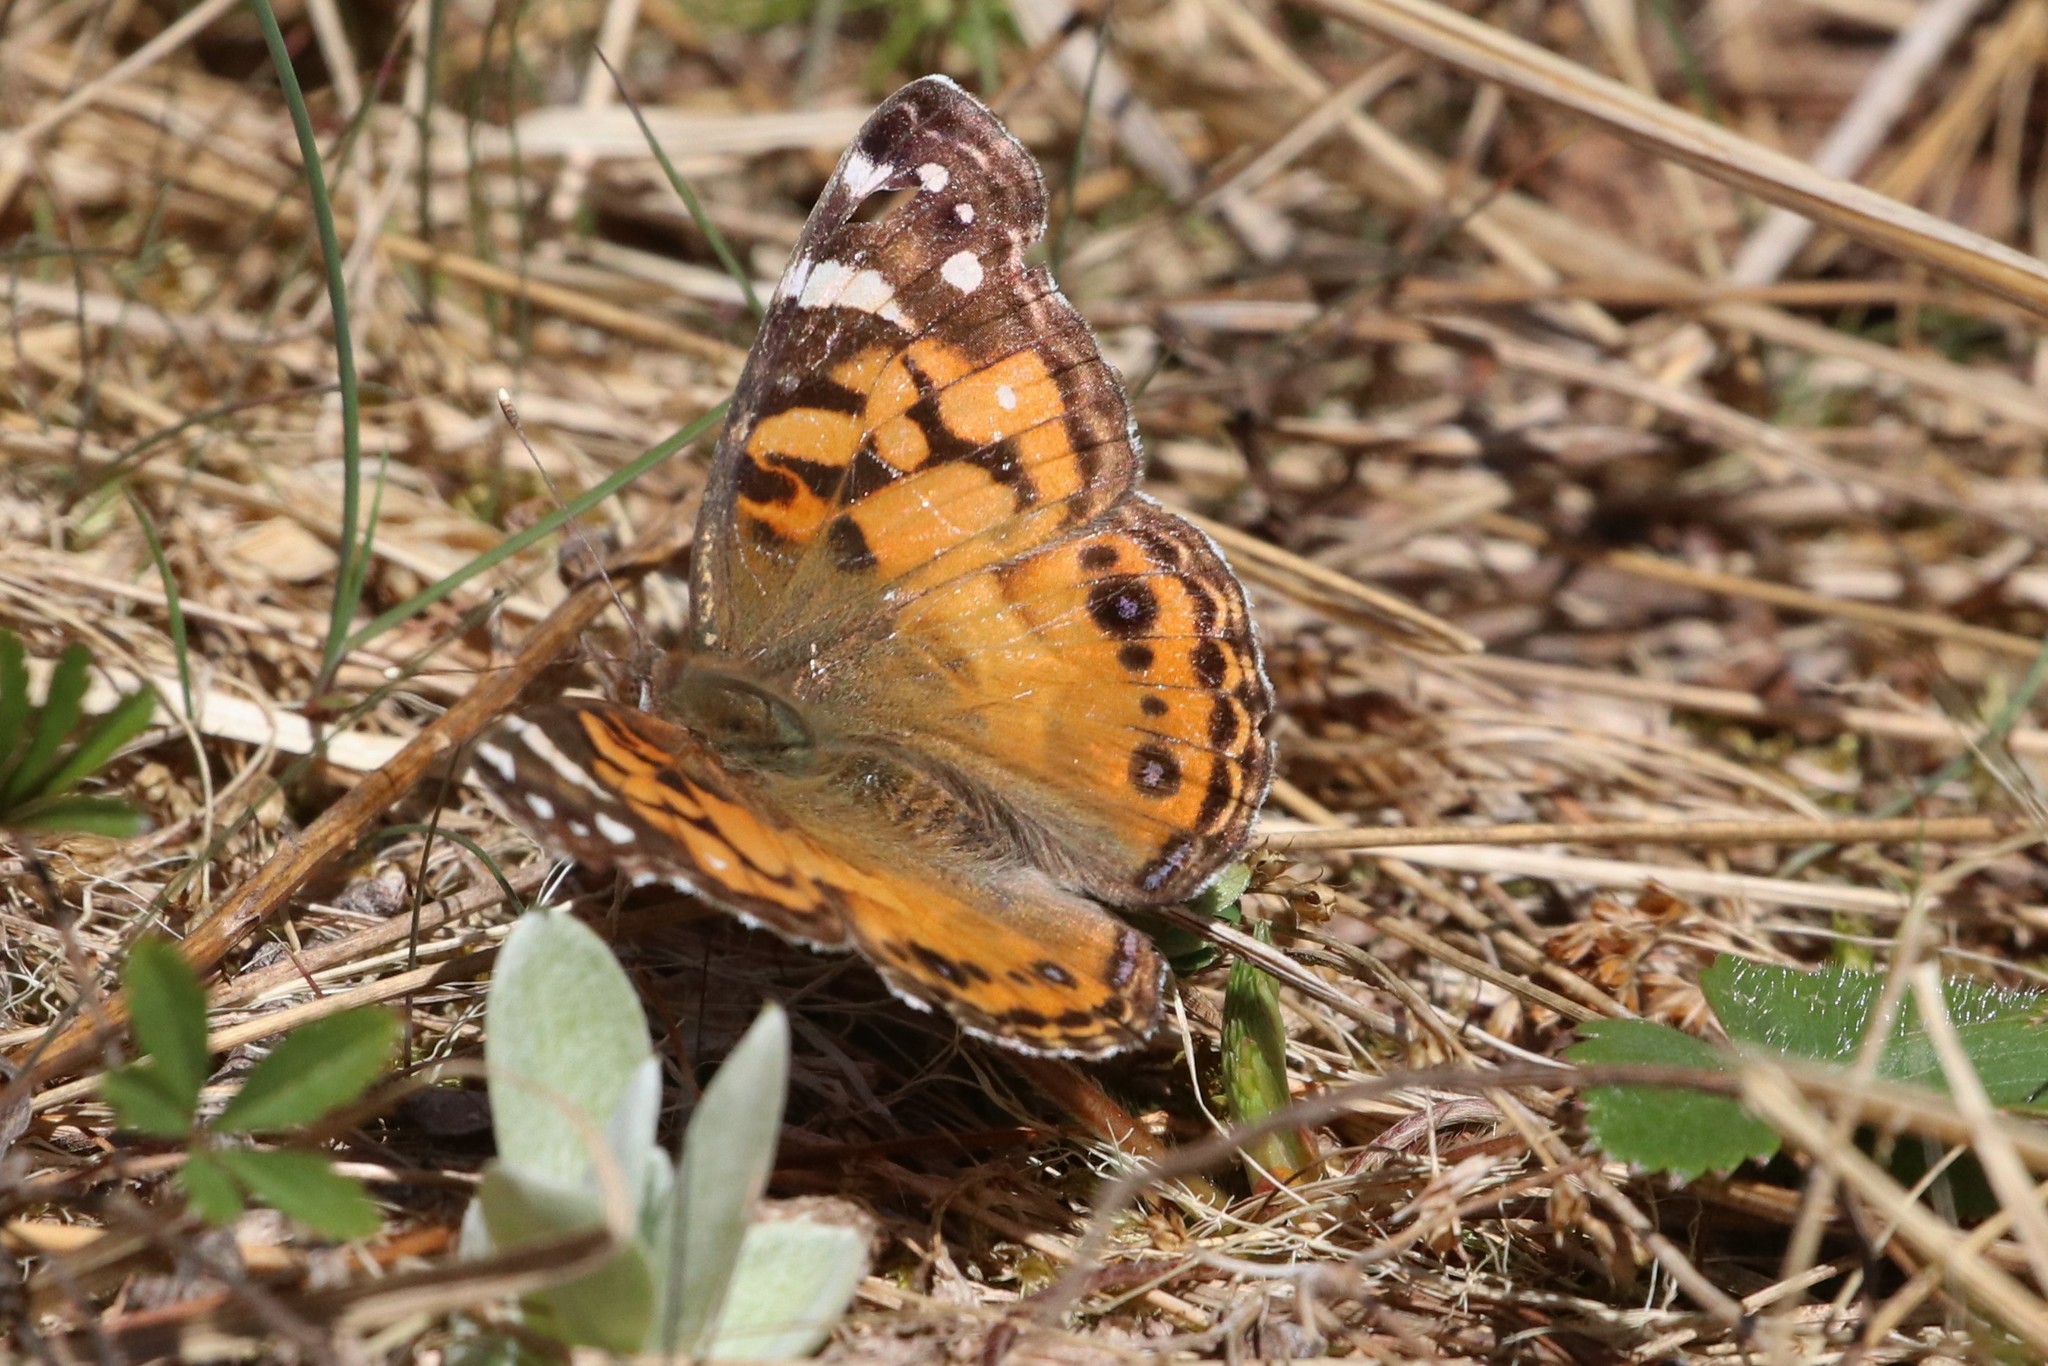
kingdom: Animalia
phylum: Arthropoda
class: Insecta
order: Lepidoptera
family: Nymphalidae
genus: Vanessa
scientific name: Vanessa virginiensis
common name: American lady
